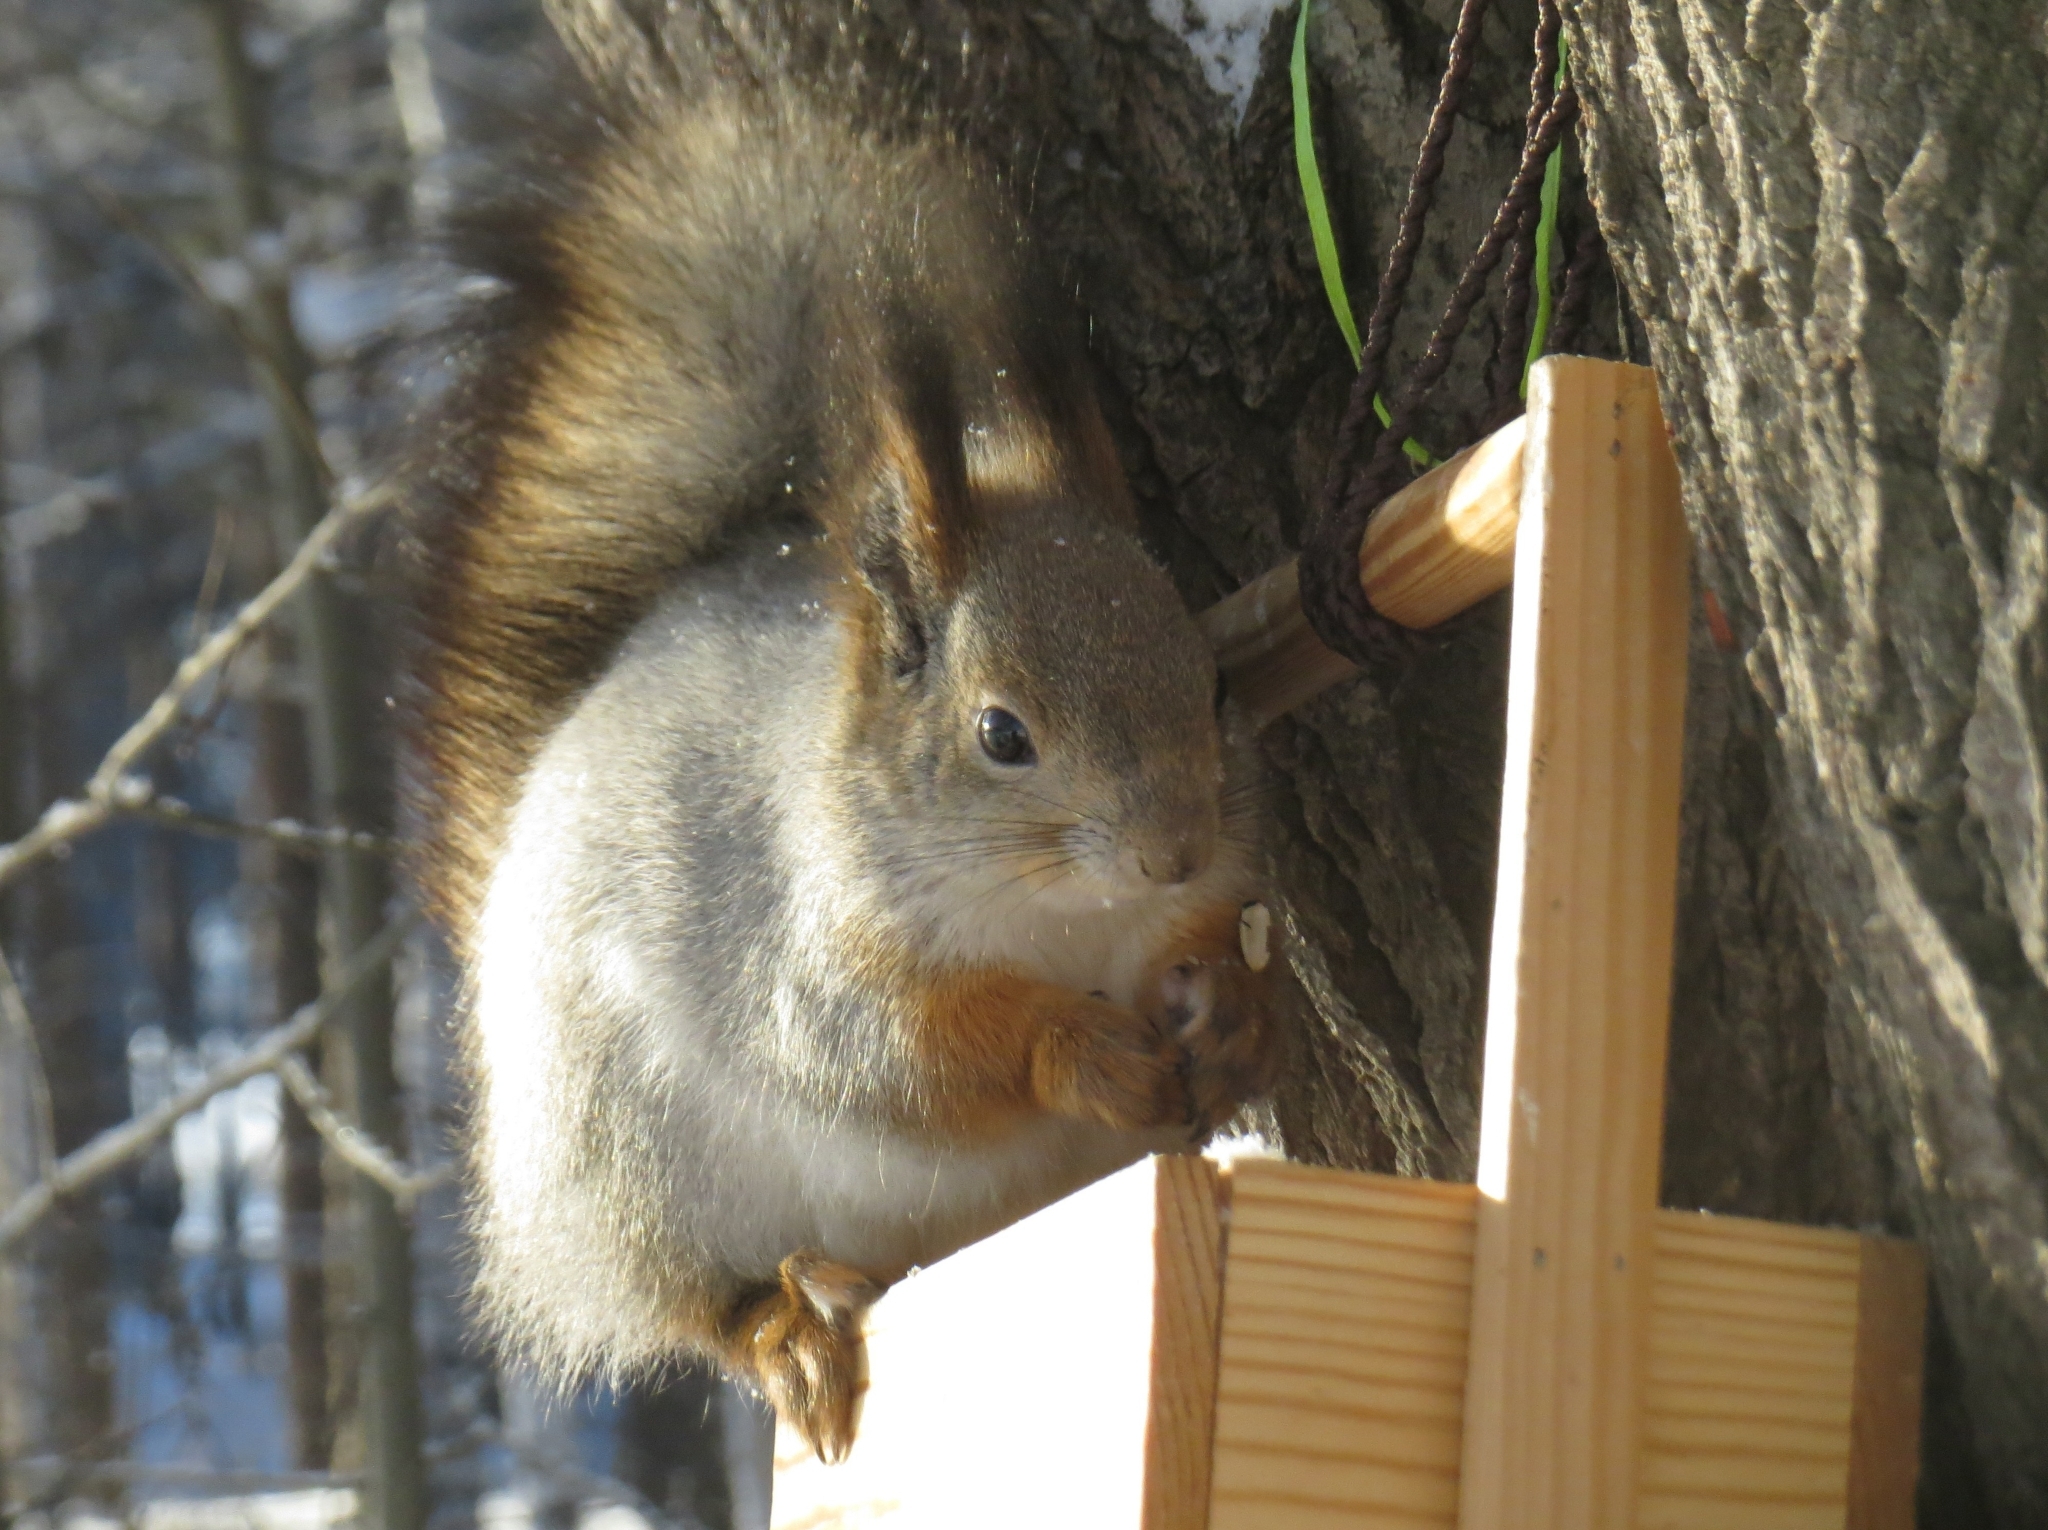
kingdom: Animalia
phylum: Chordata
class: Mammalia
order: Rodentia
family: Sciuridae
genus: Sciurus
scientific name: Sciurus vulgaris
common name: Eurasian red squirrel
